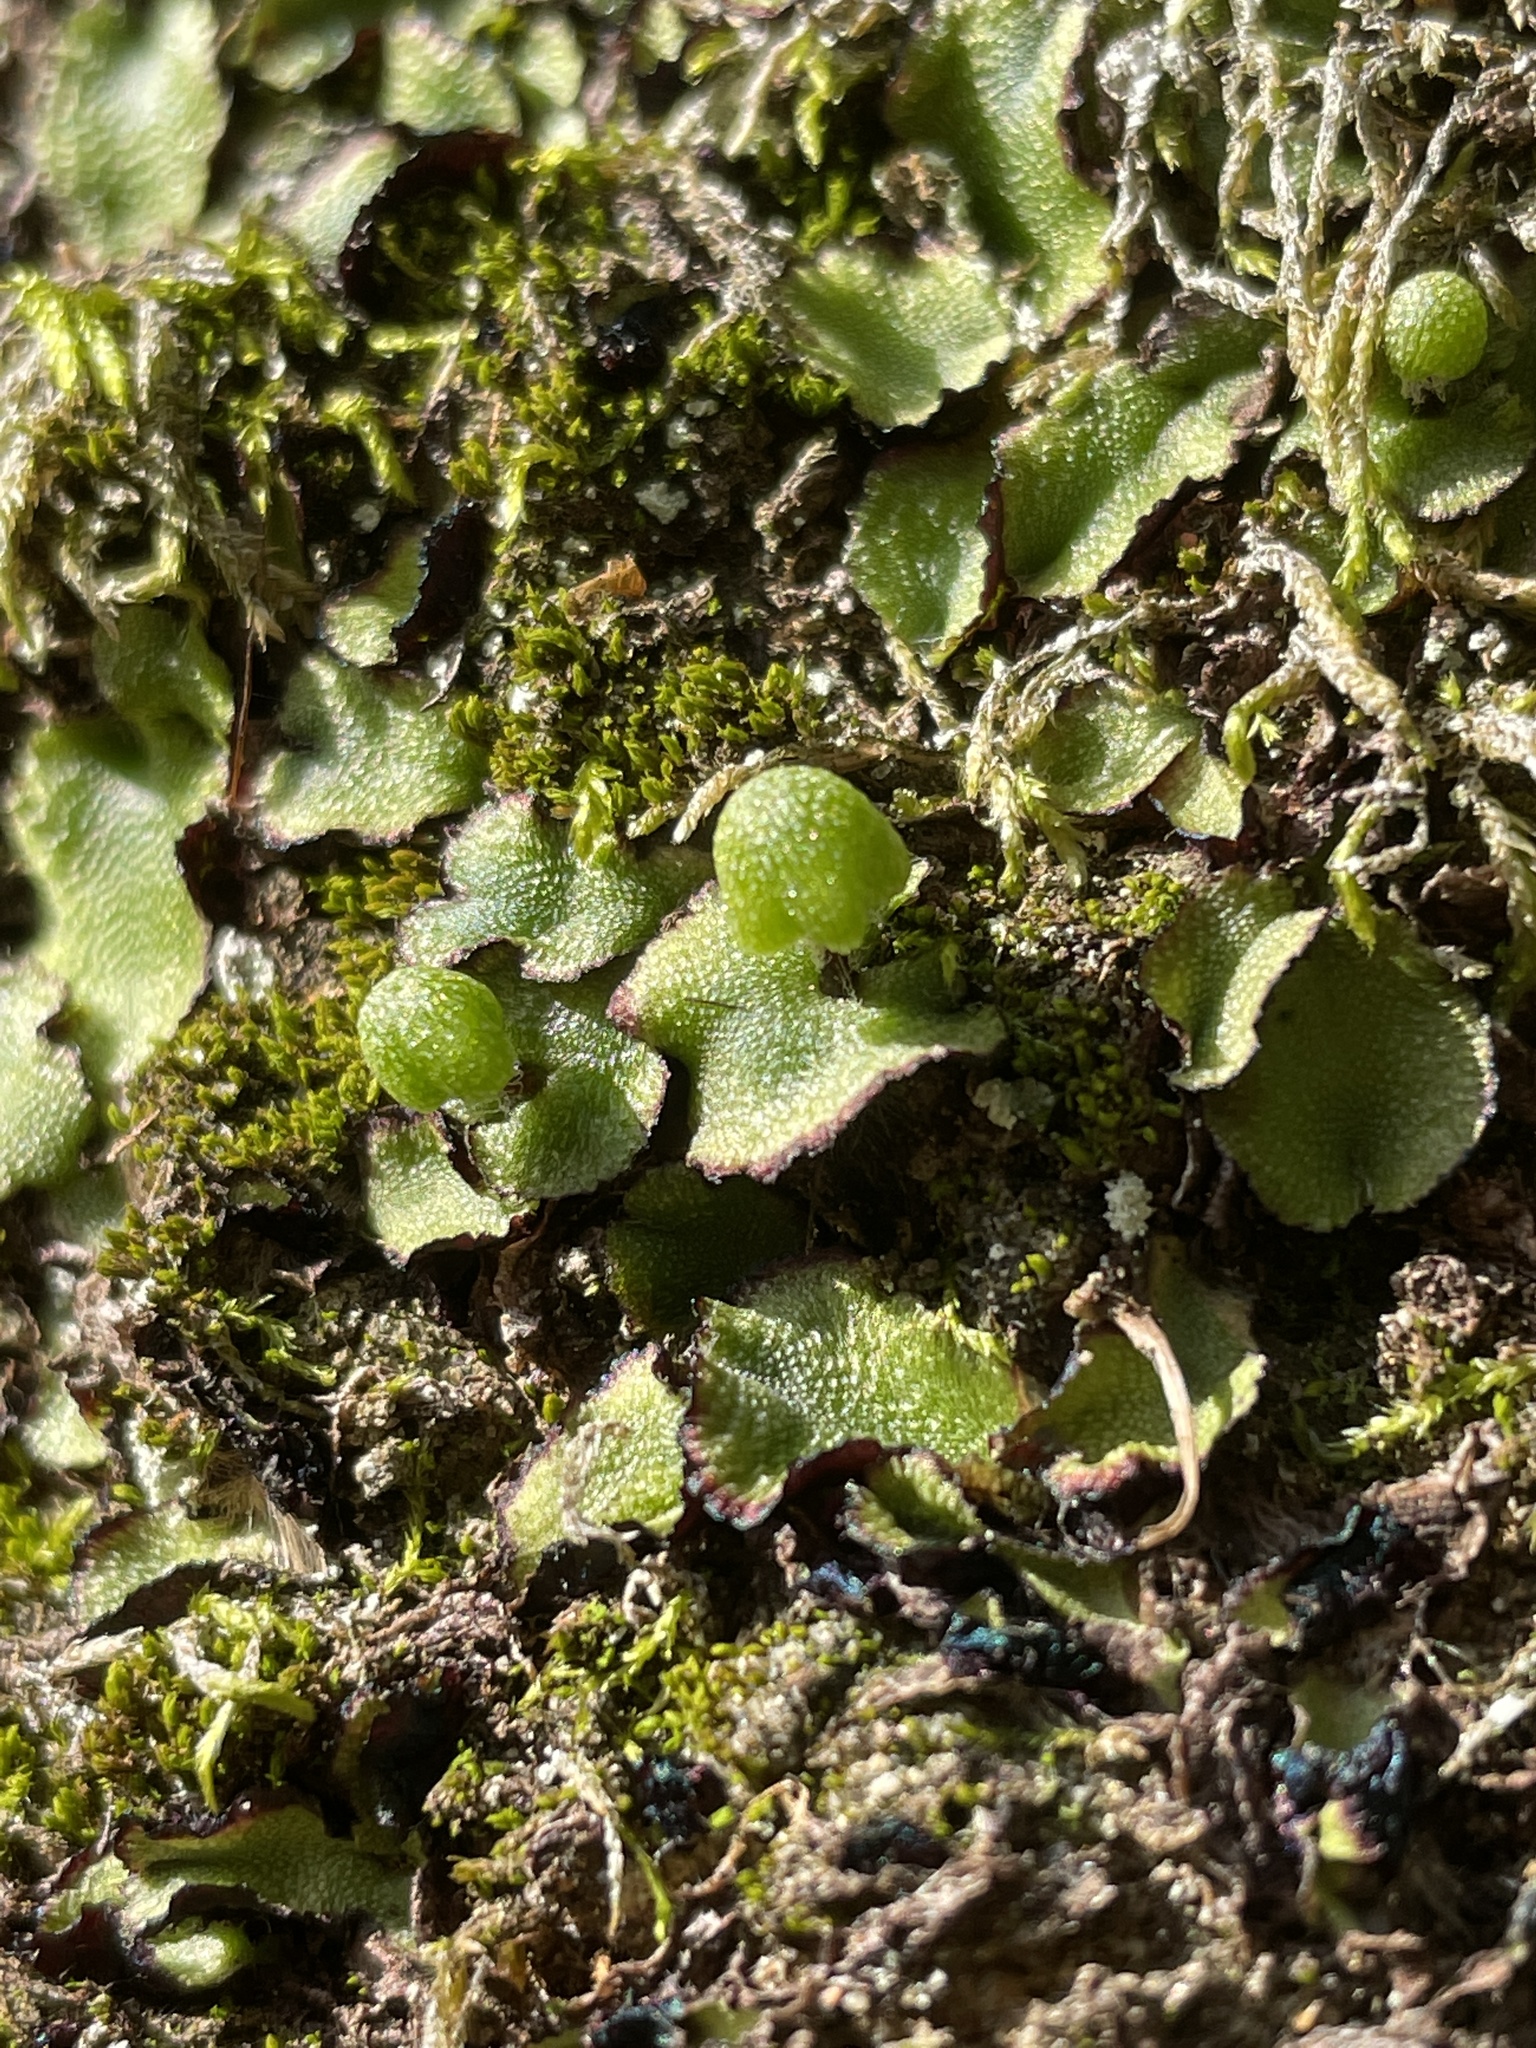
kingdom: Plantae
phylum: Marchantiophyta
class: Marchantiopsida
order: Marchantiales
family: Aytoniaceae
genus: Asterella
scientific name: Asterella californica
